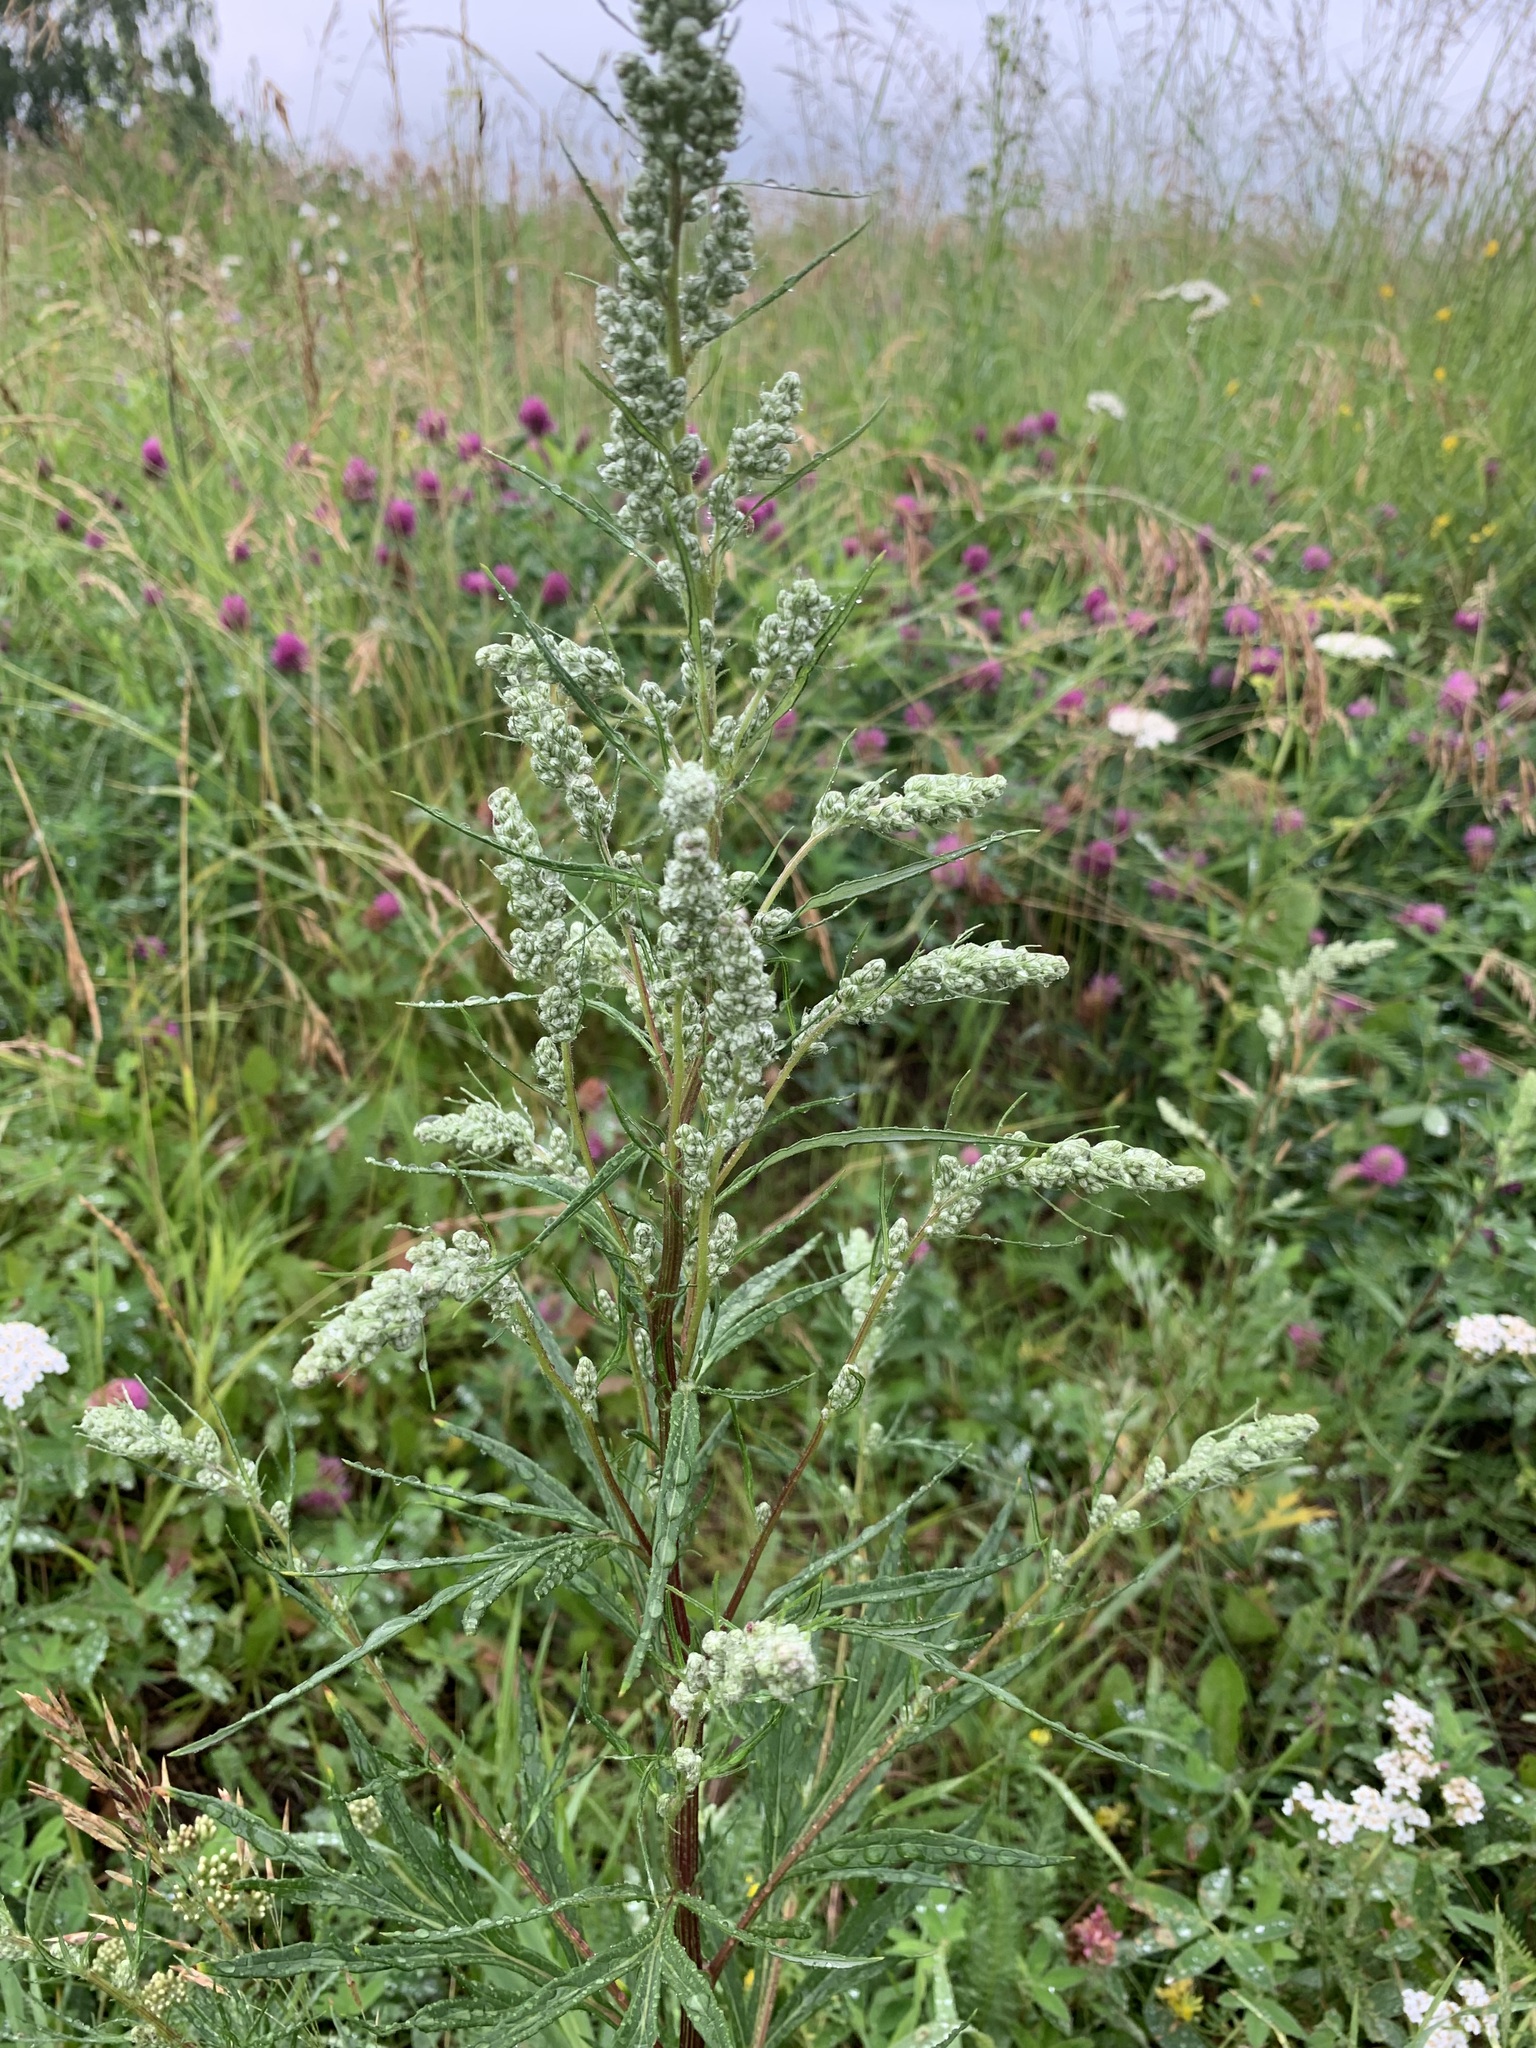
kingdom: Plantae
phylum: Tracheophyta
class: Magnoliopsida
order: Asterales
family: Asteraceae
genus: Artemisia
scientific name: Artemisia vulgaris
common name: Mugwort
